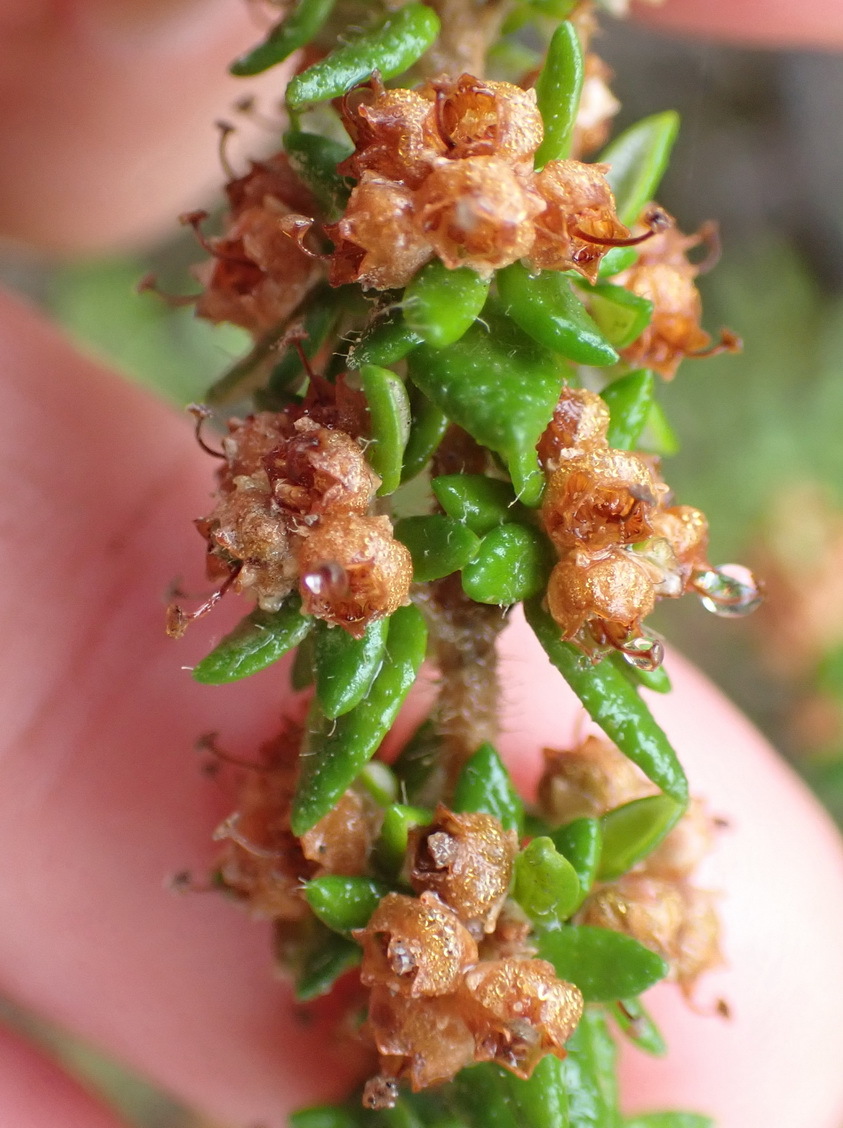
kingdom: Plantae
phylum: Tracheophyta
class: Magnoliopsida
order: Ericales
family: Ericaceae
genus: Erica
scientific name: Erica cordata
